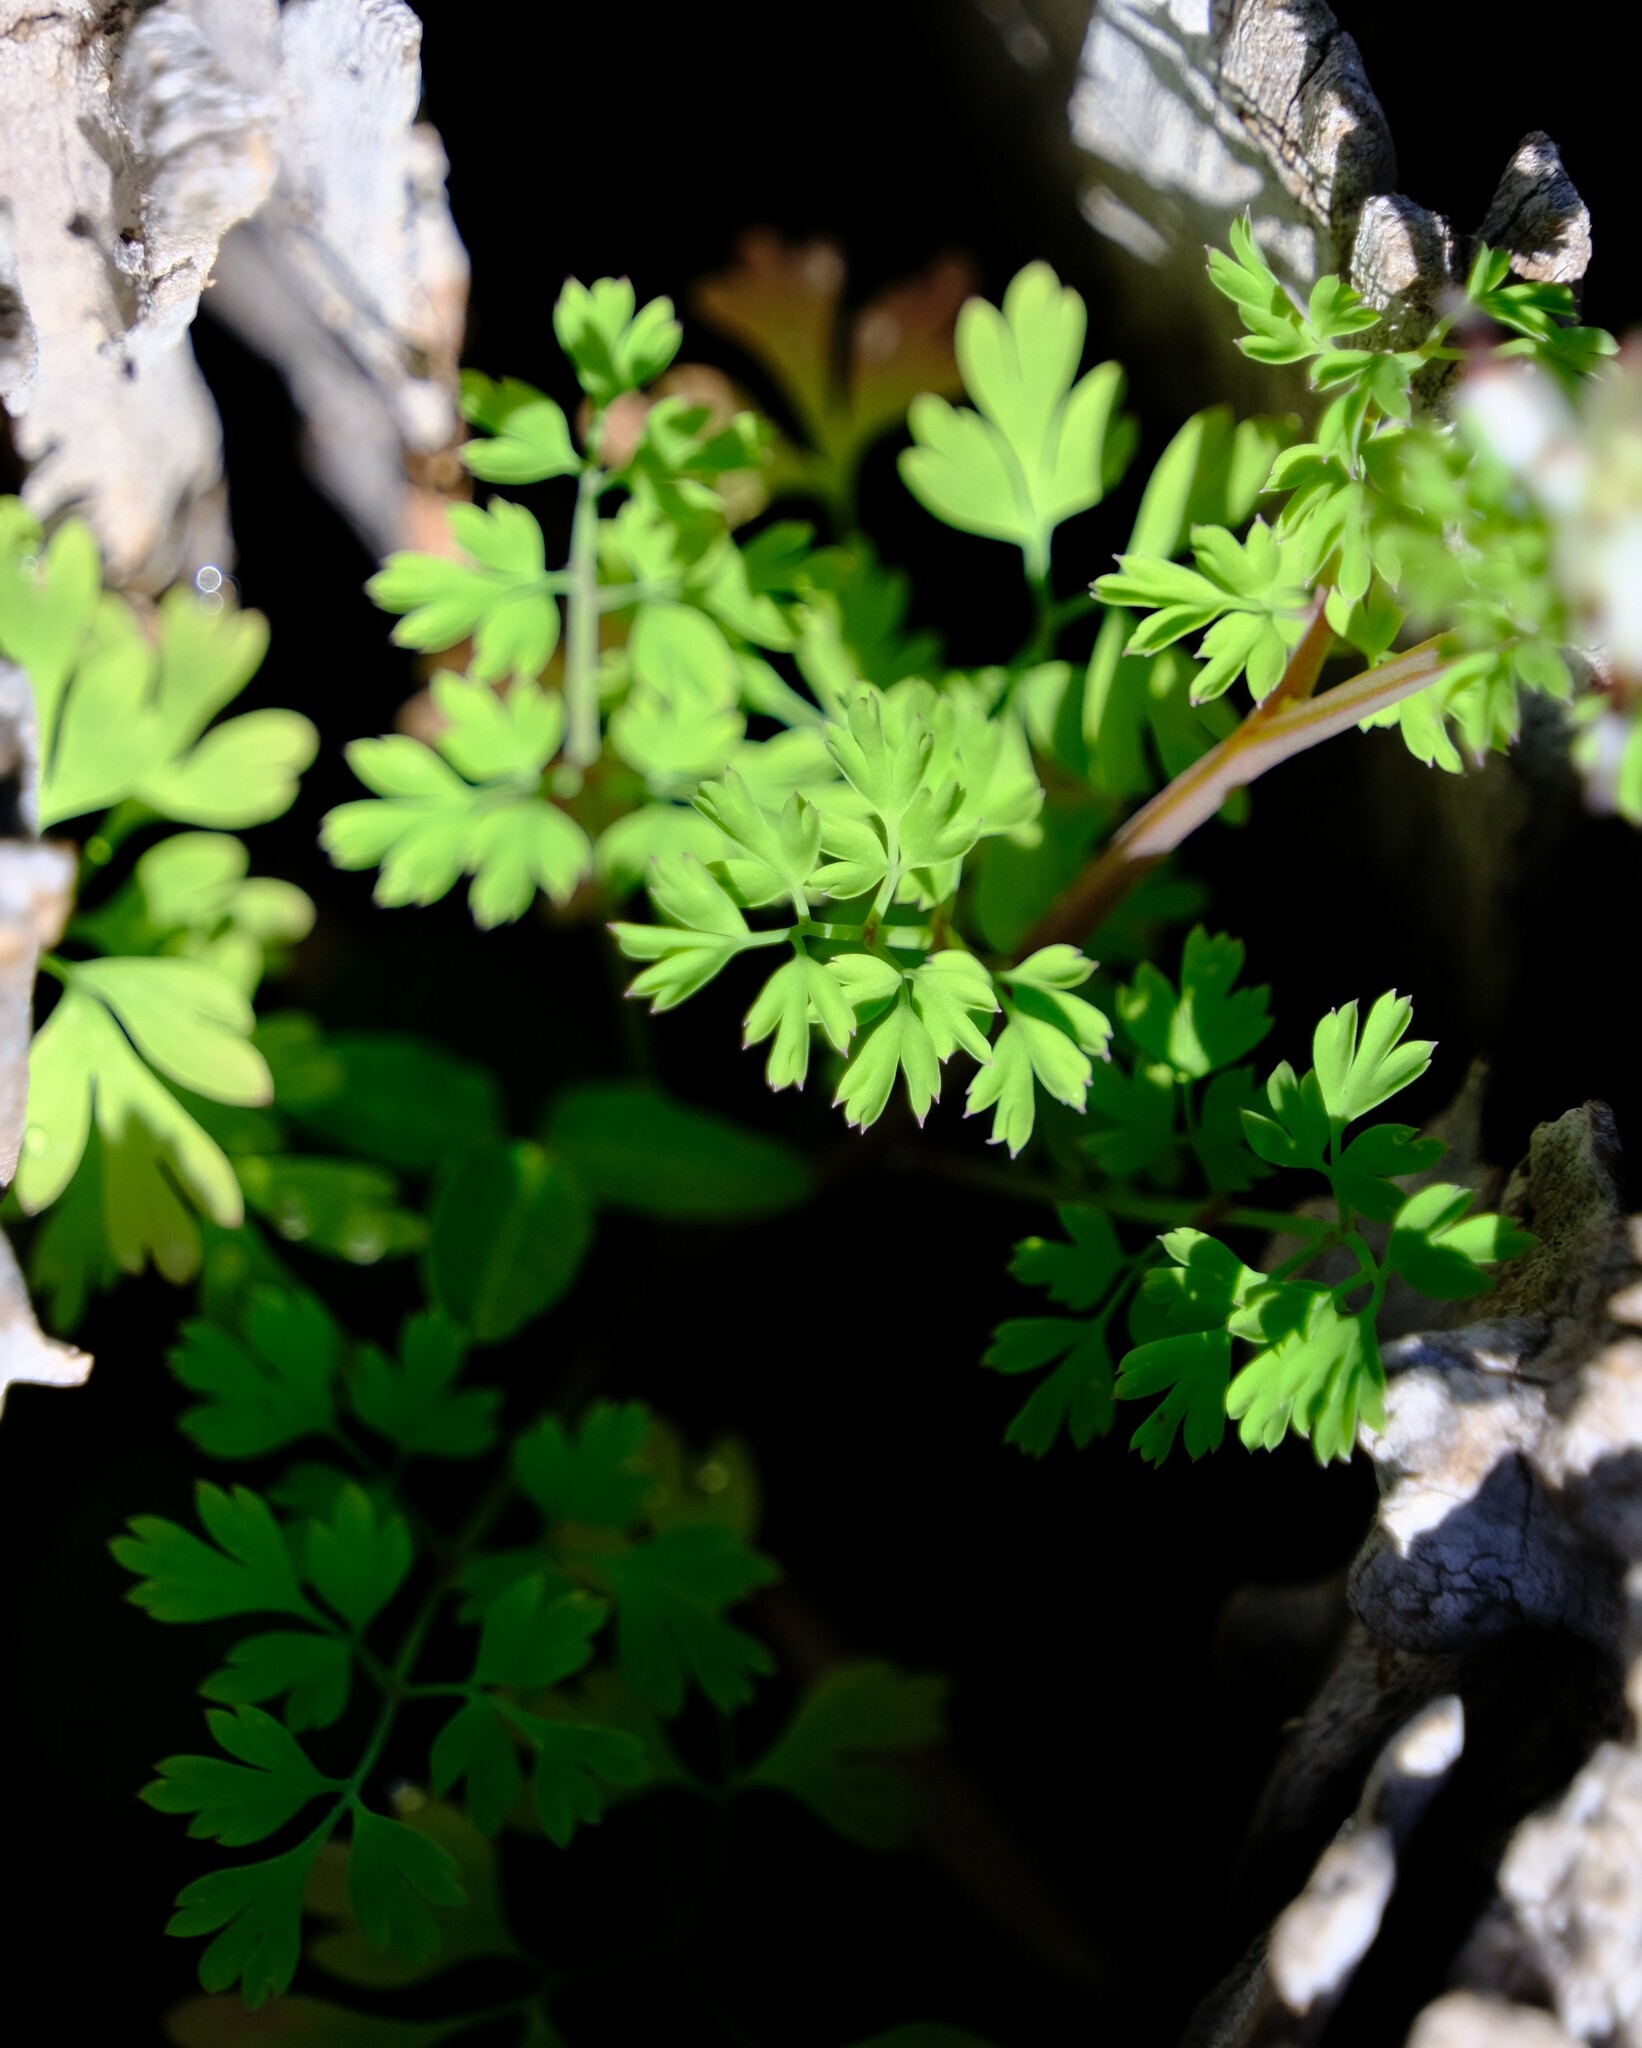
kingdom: Plantae
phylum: Tracheophyta
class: Magnoliopsida
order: Ranunculales
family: Papaveraceae
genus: Fumaria
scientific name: Fumaria capreolata
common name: White ramping-fumitory
